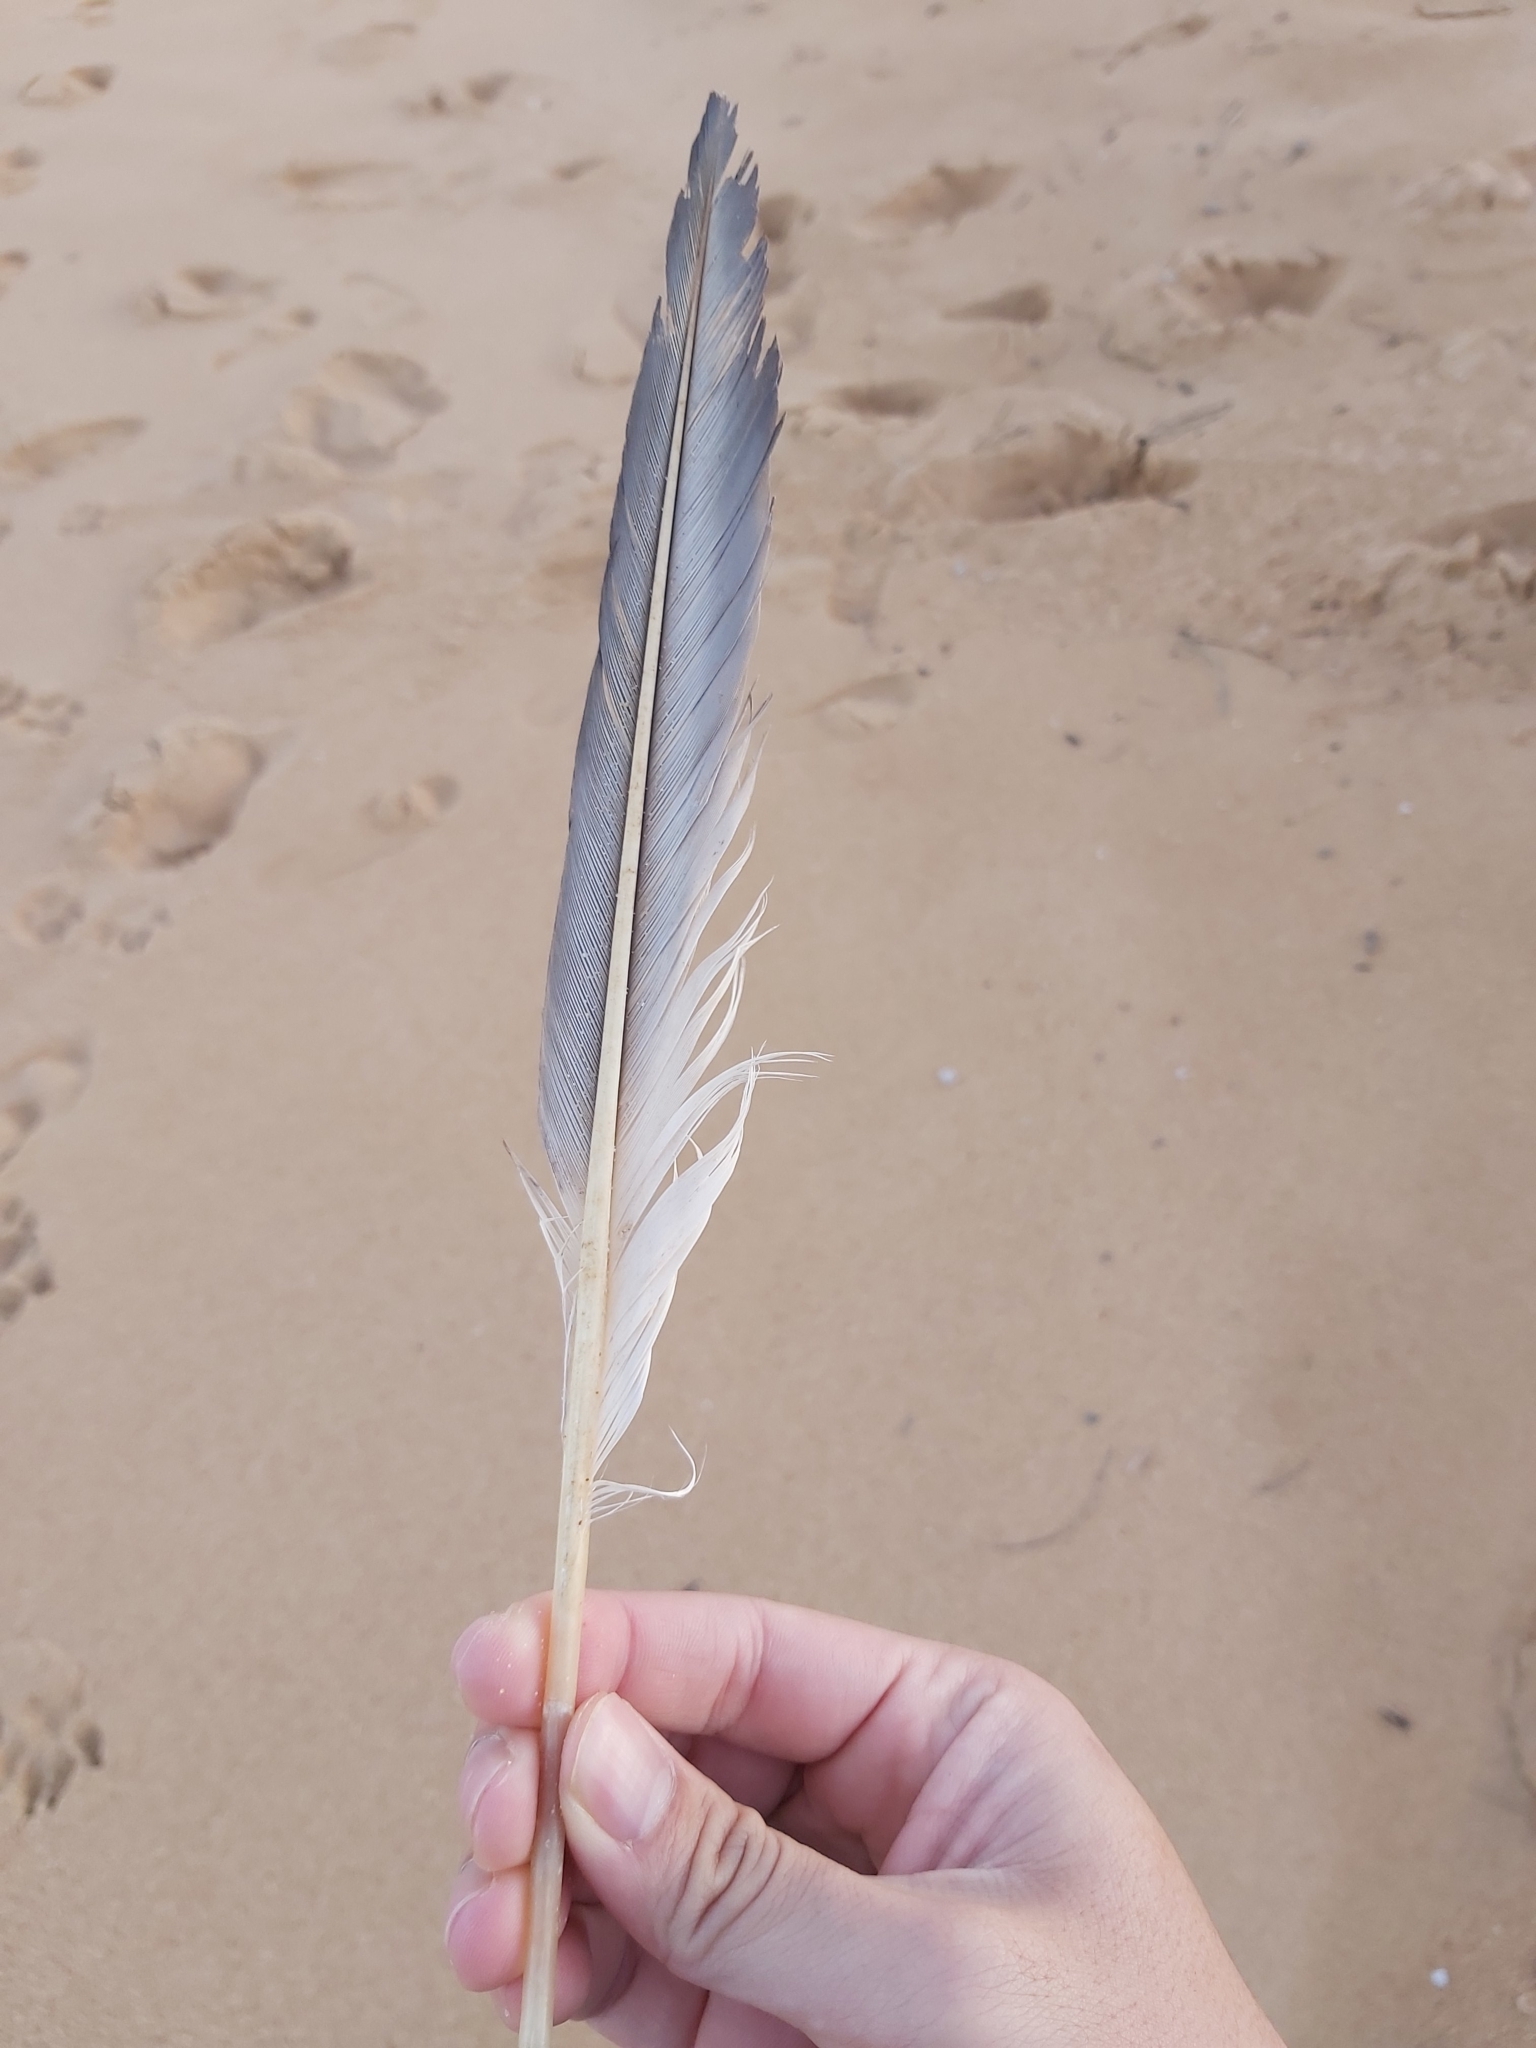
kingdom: Animalia
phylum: Chordata
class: Aves
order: Suliformes
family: Sulidae
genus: Morus
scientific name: Morus serrator
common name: Australasian gannet
